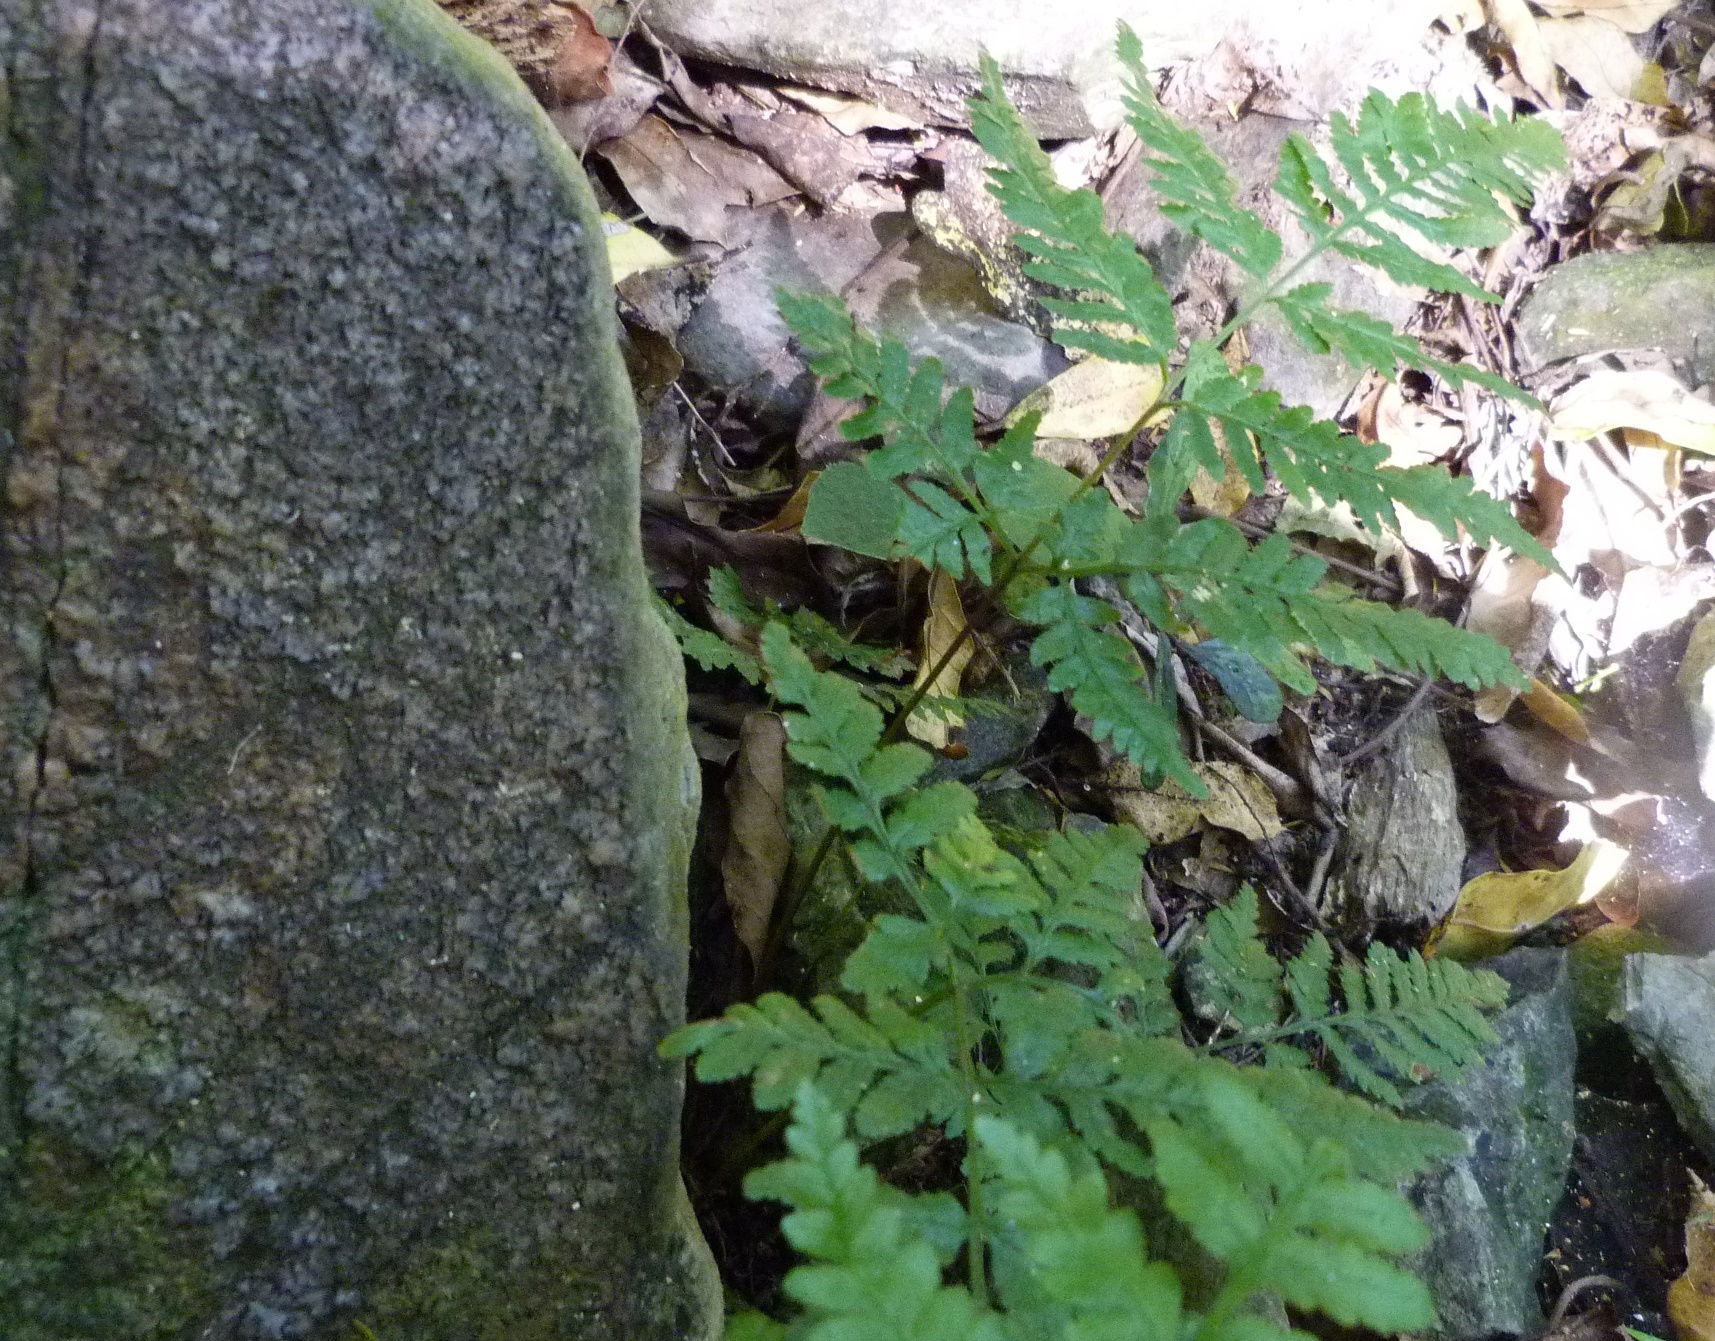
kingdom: Plantae
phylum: Tracheophyta
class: Polypodiopsida
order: Polypodiales
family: Pteridaceae
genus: Pteris
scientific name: Pteris tremula
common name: Australian brake
